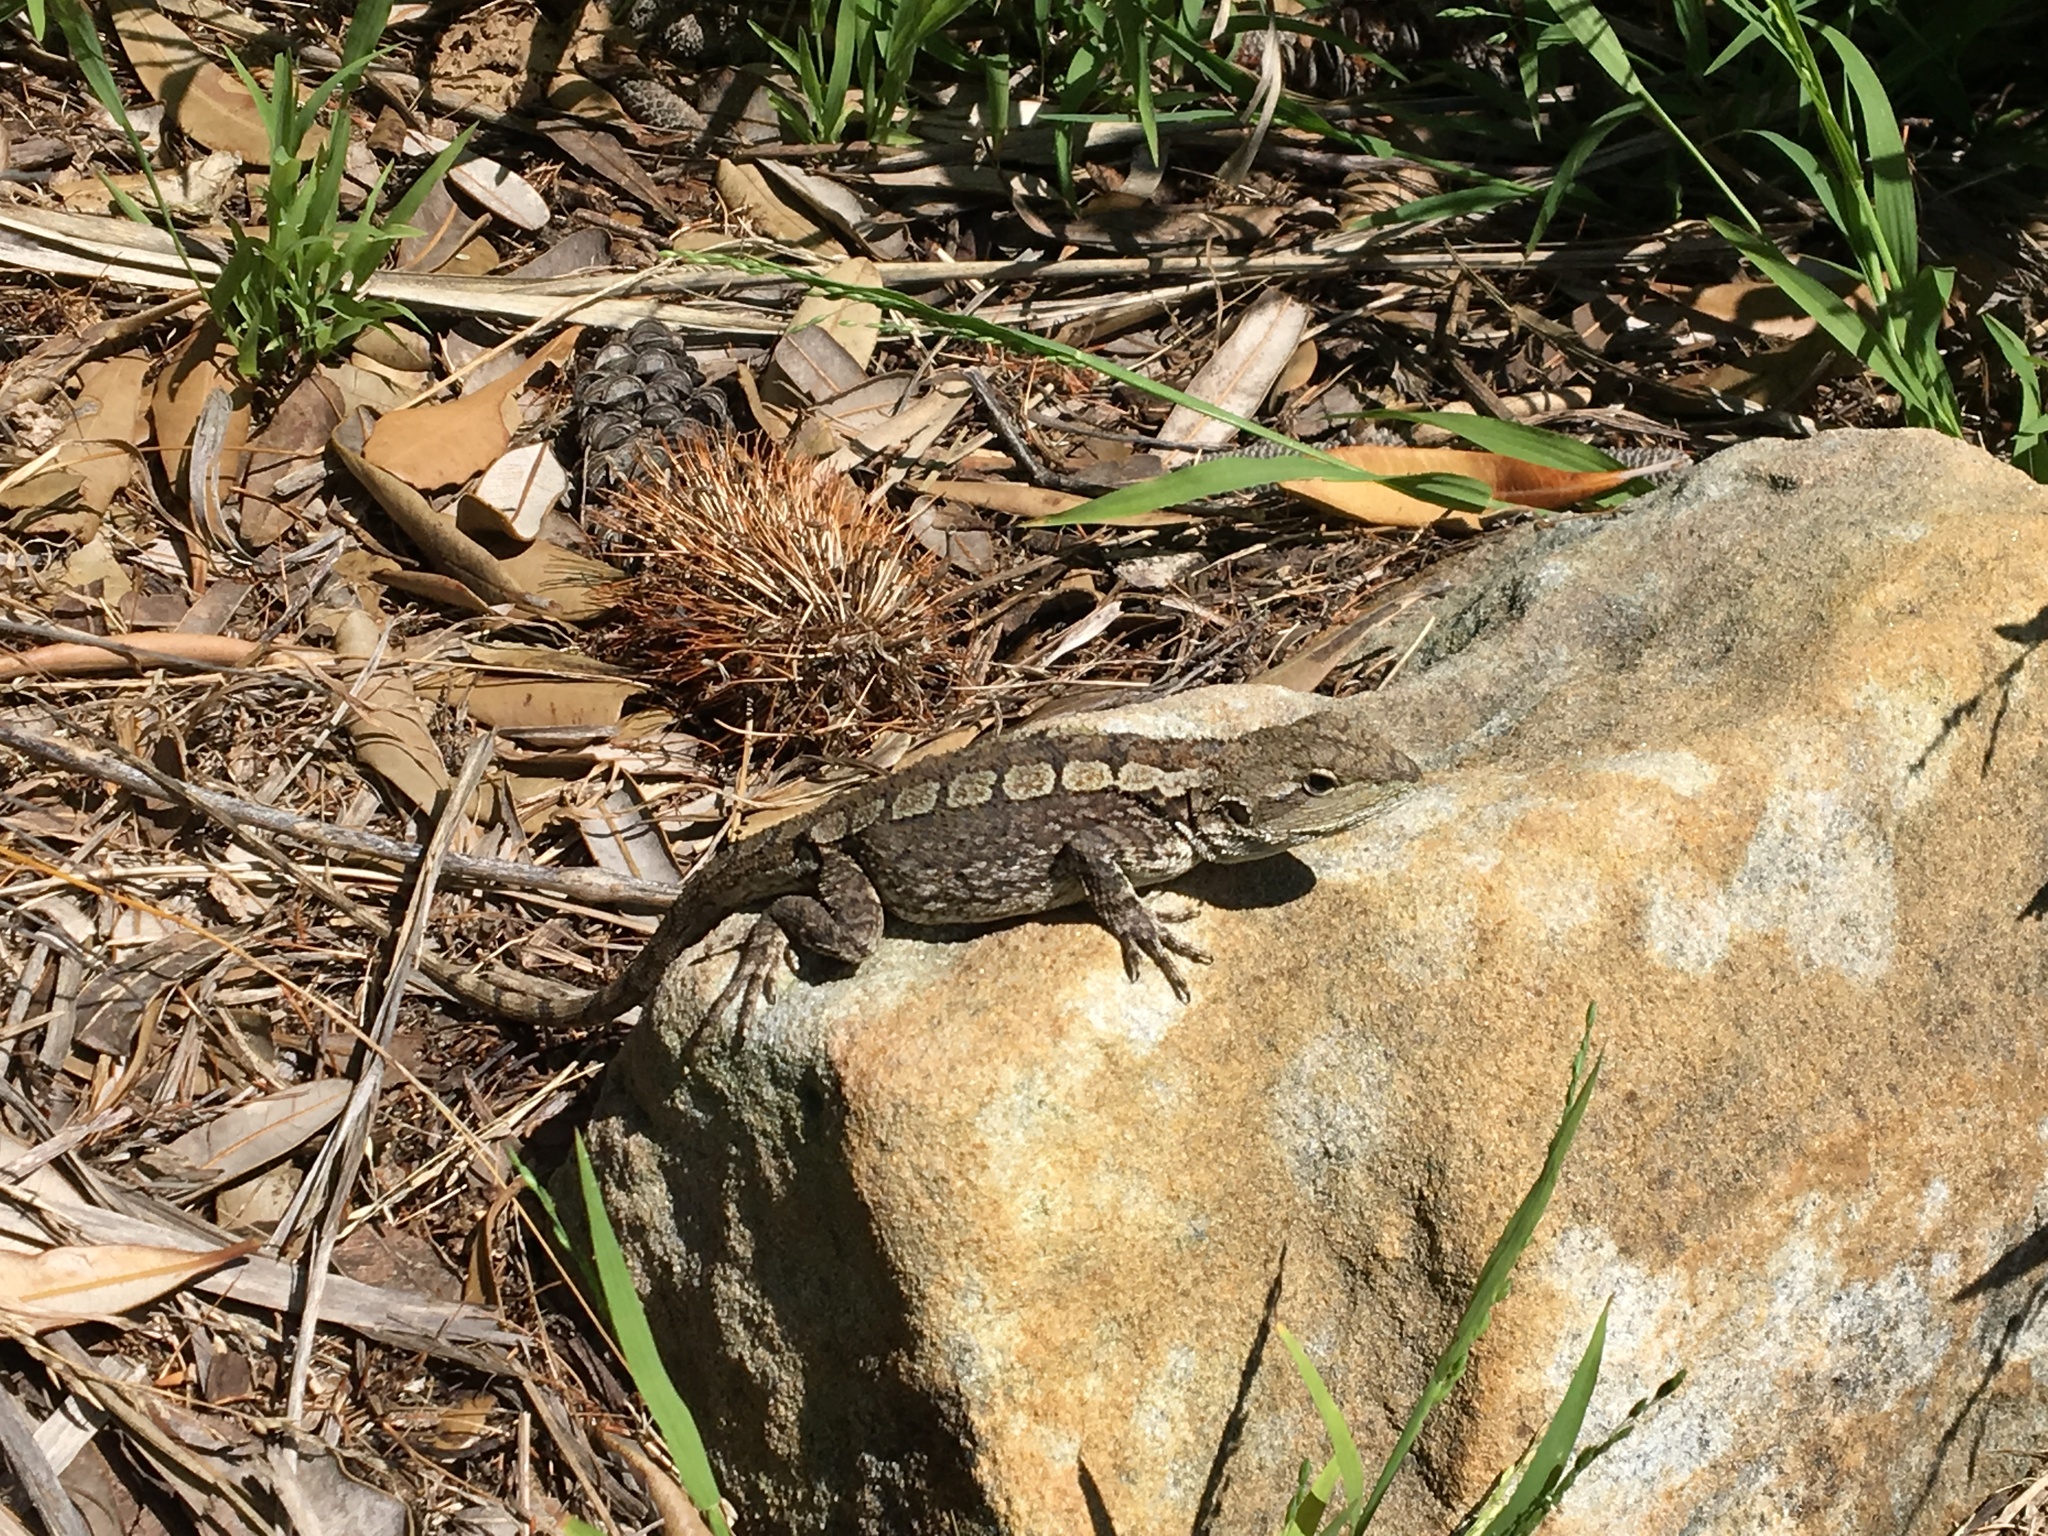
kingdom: Animalia
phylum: Chordata
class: Squamata
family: Agamidae
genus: Amphibolurus
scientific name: Amphibolurus muricatus
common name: Jacky lizard
